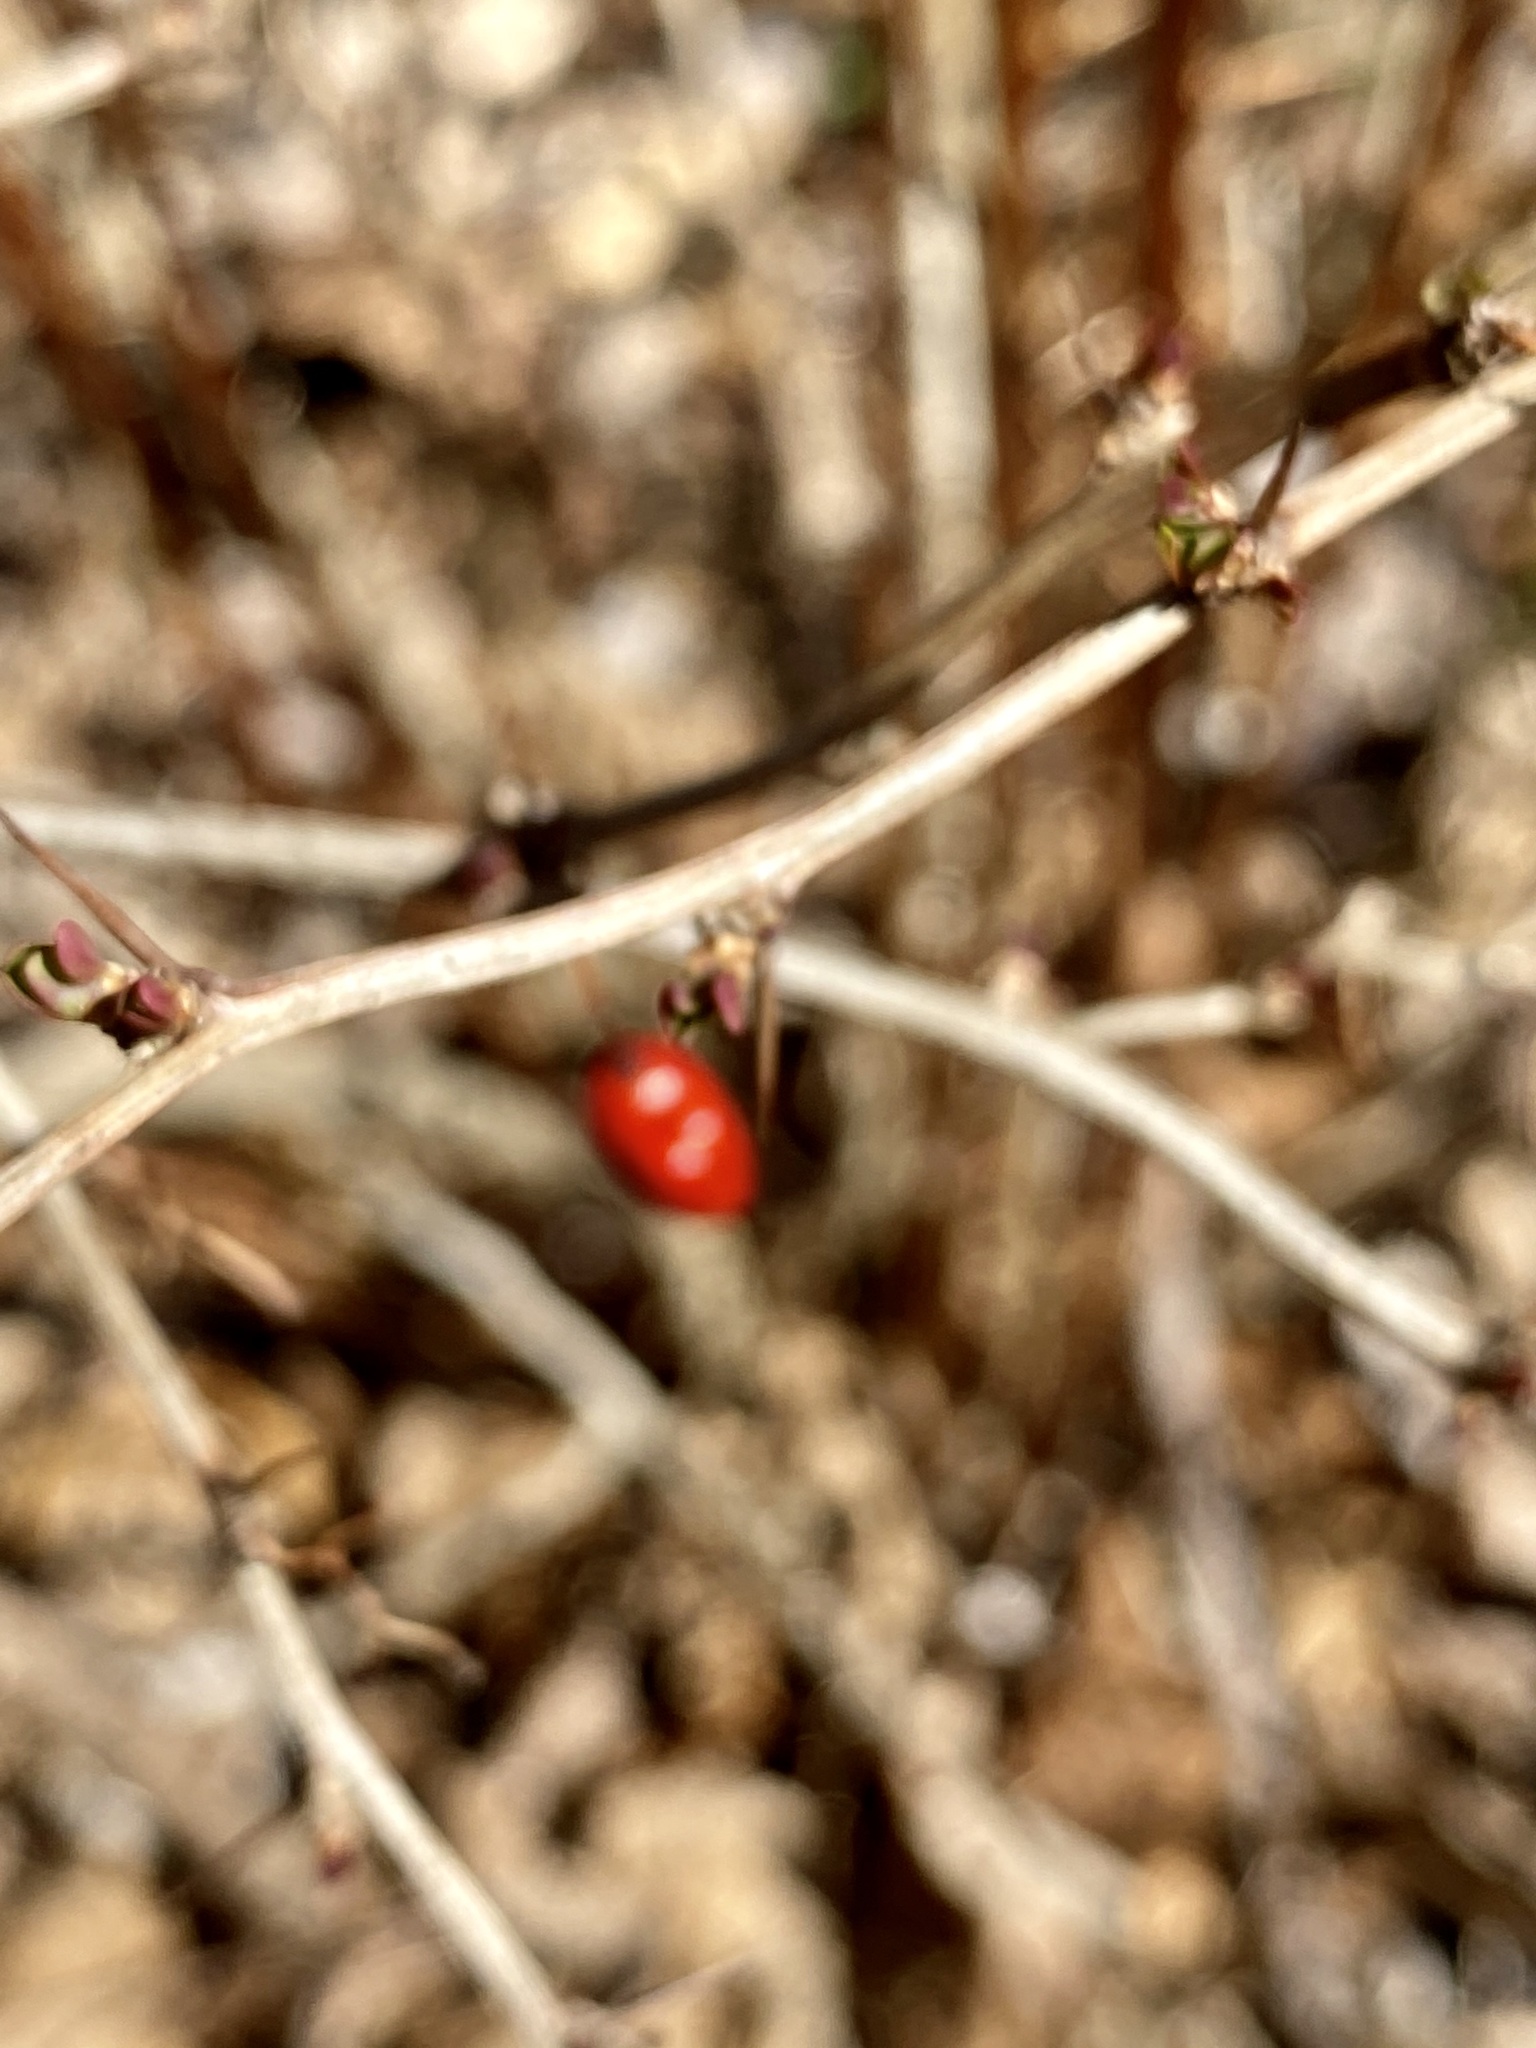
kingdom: Plantae
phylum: Tracheophyta
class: Magnoliopsida
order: Ranunculales
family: Berberidaceae
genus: Berberis
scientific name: Berberis thunbergii
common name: Japanese barberry
